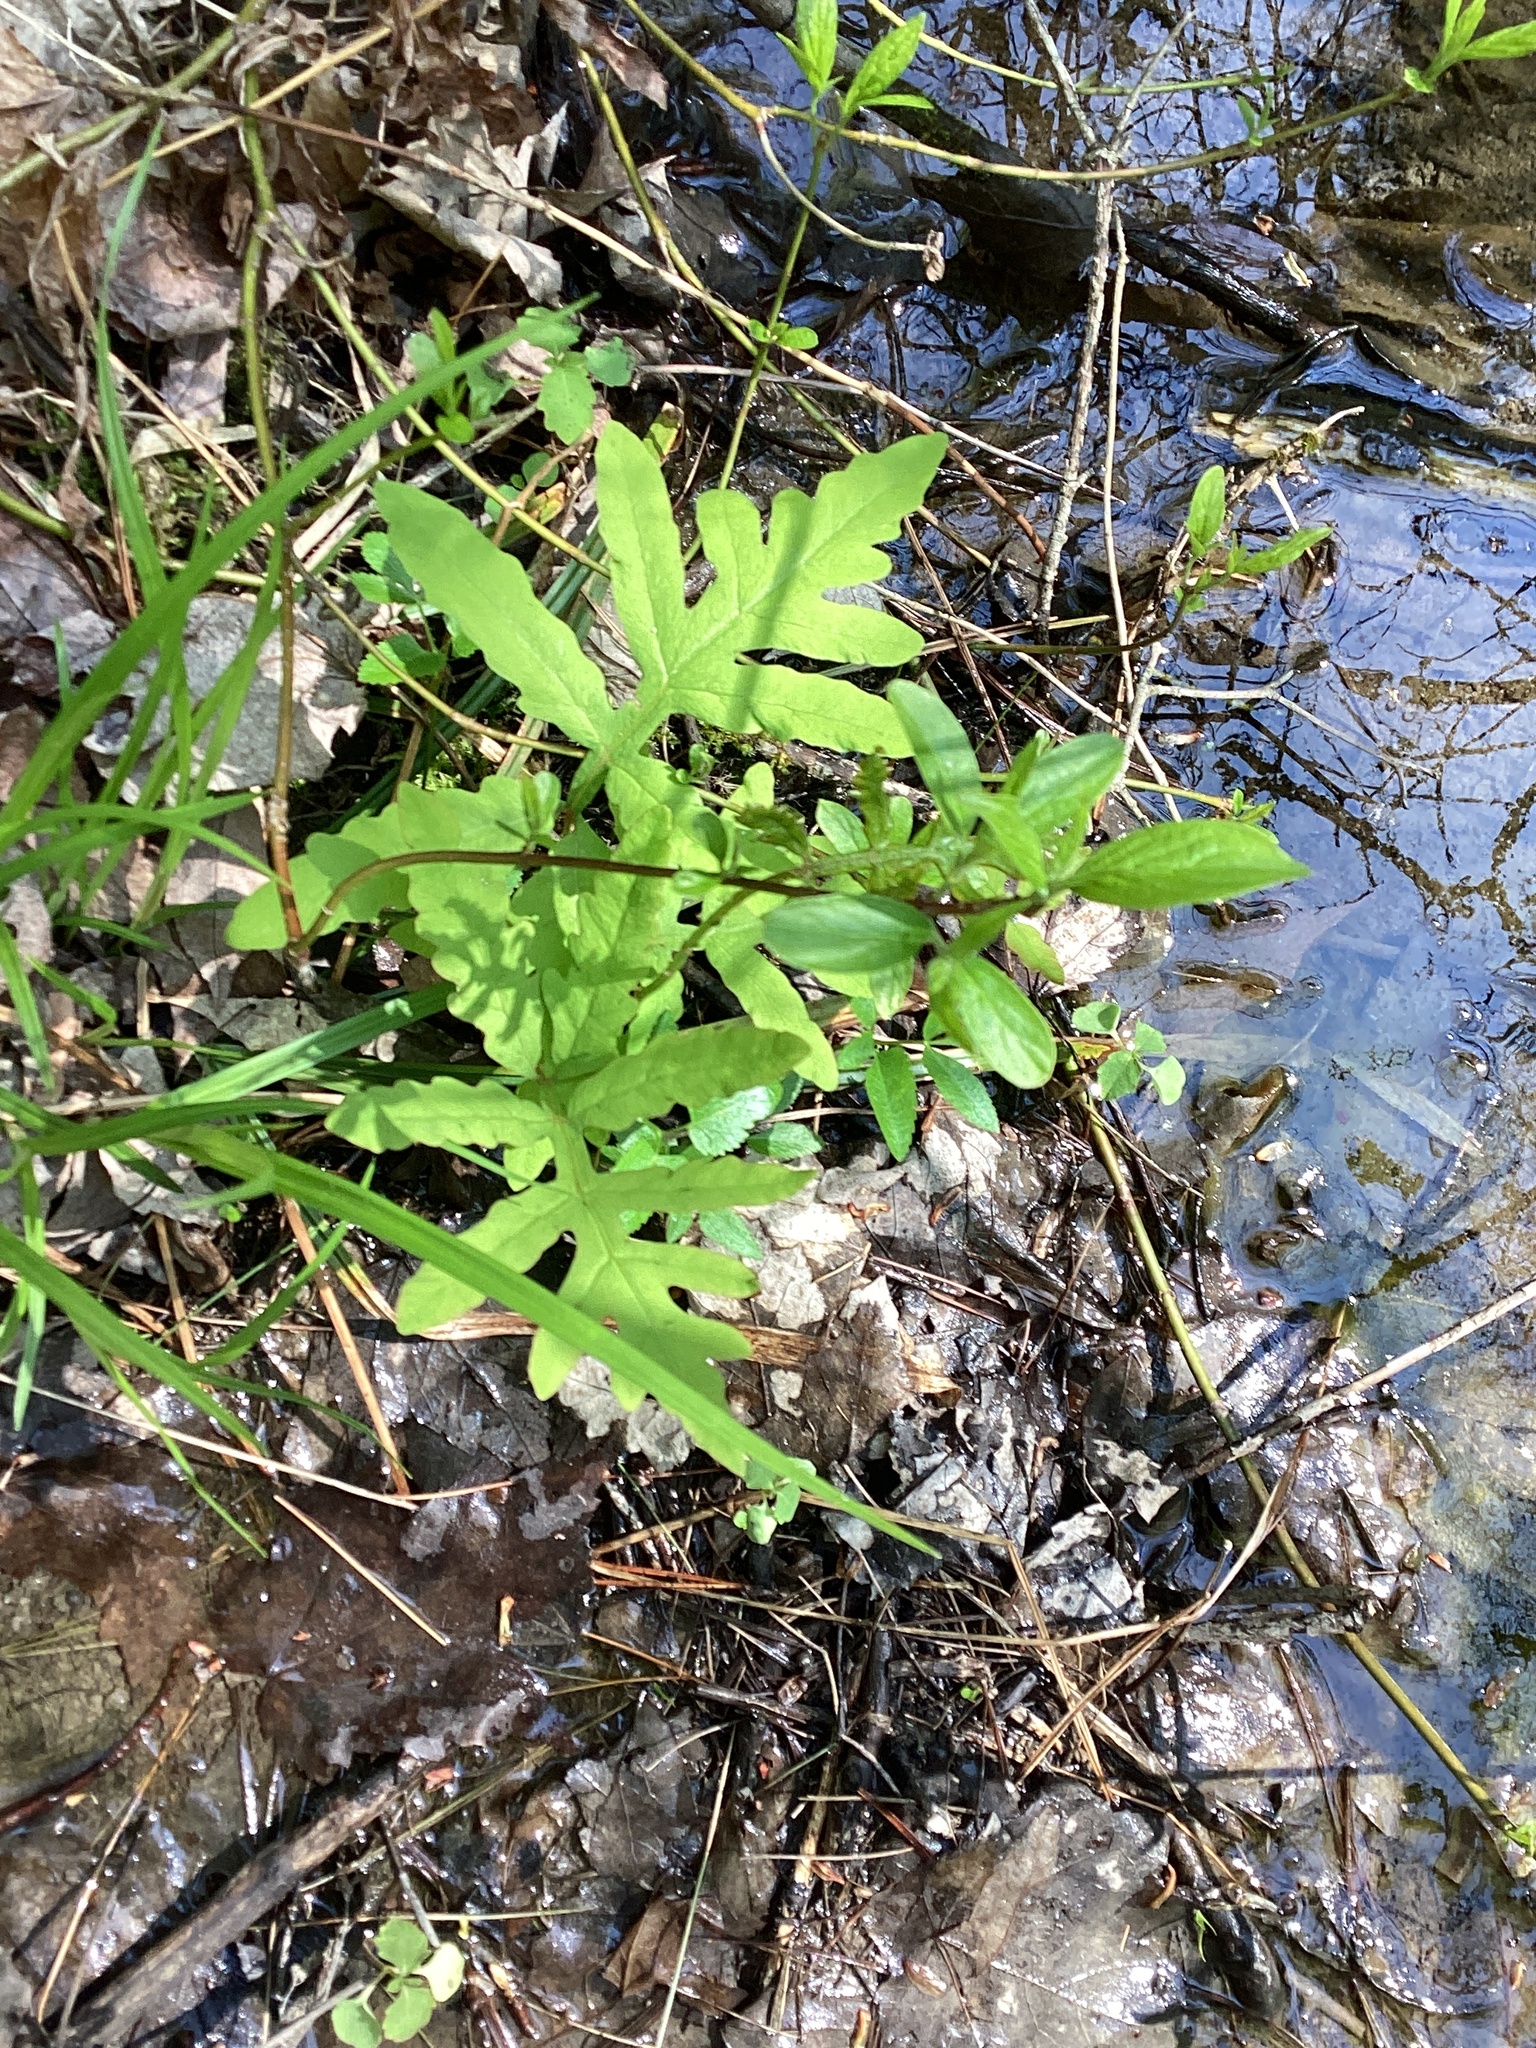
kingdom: Plantae
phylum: Tracheophyta
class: Polypodiopsida
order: Polypodiales
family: Onocleaceae
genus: Onoclea
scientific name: Onoclea sensibilis
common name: Sensitive fern
